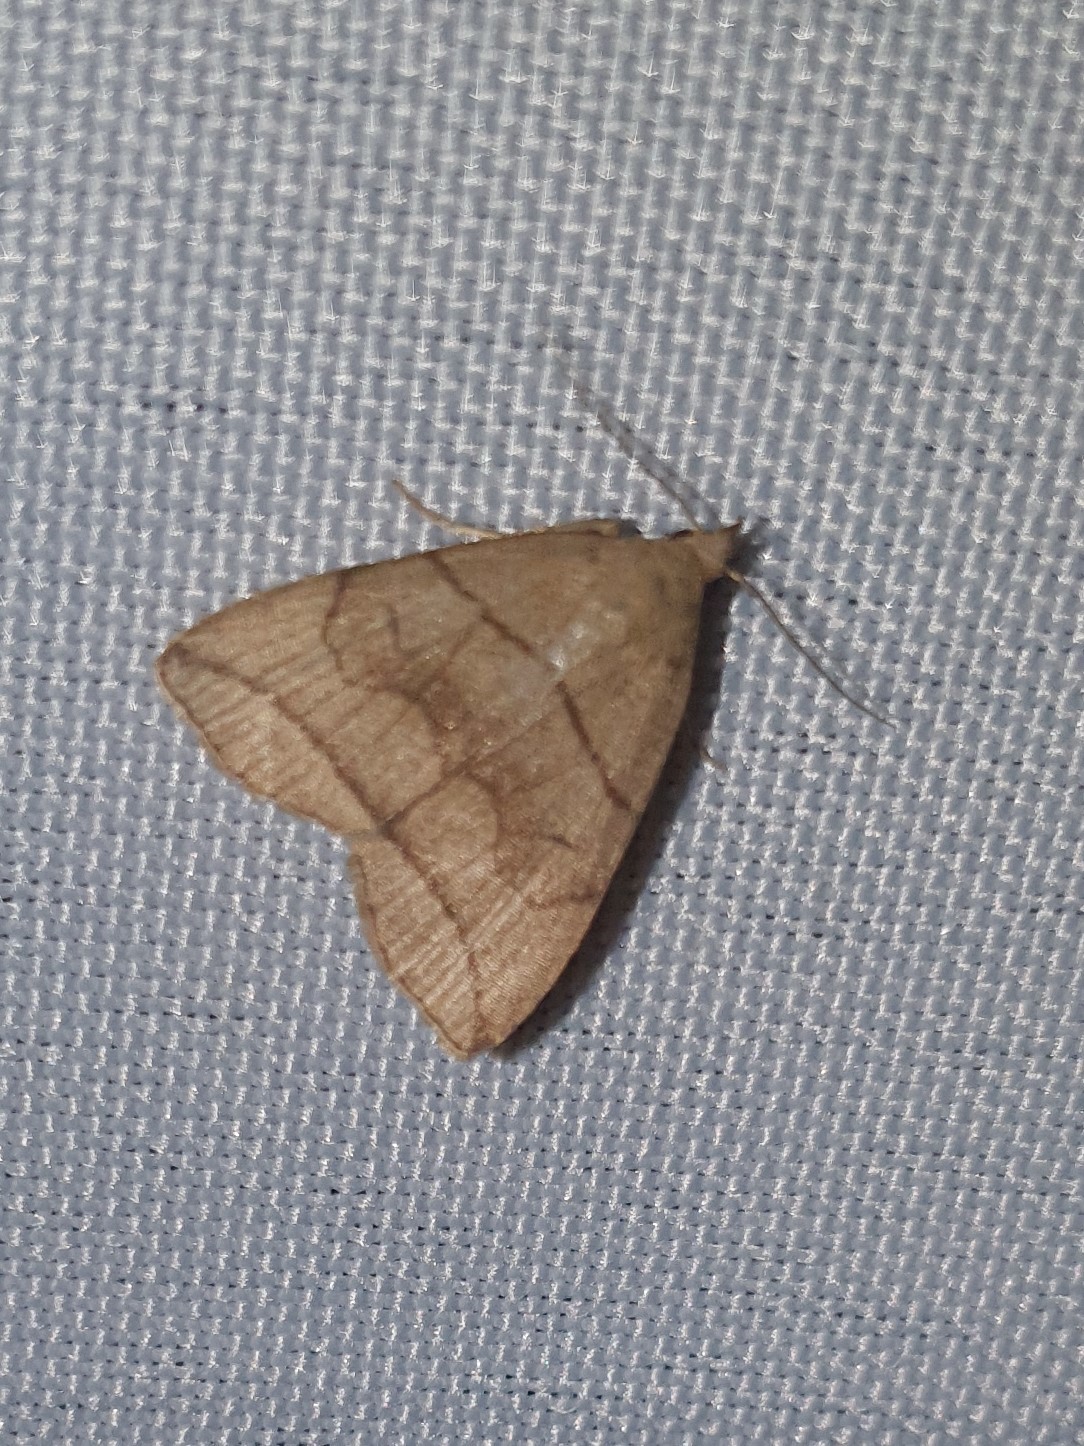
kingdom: Animalia
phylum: Arthropoda
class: Insecta
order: Lepidoptera
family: Erebidae
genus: Herminia
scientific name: Herminia grisealis
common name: Small fan-foot
